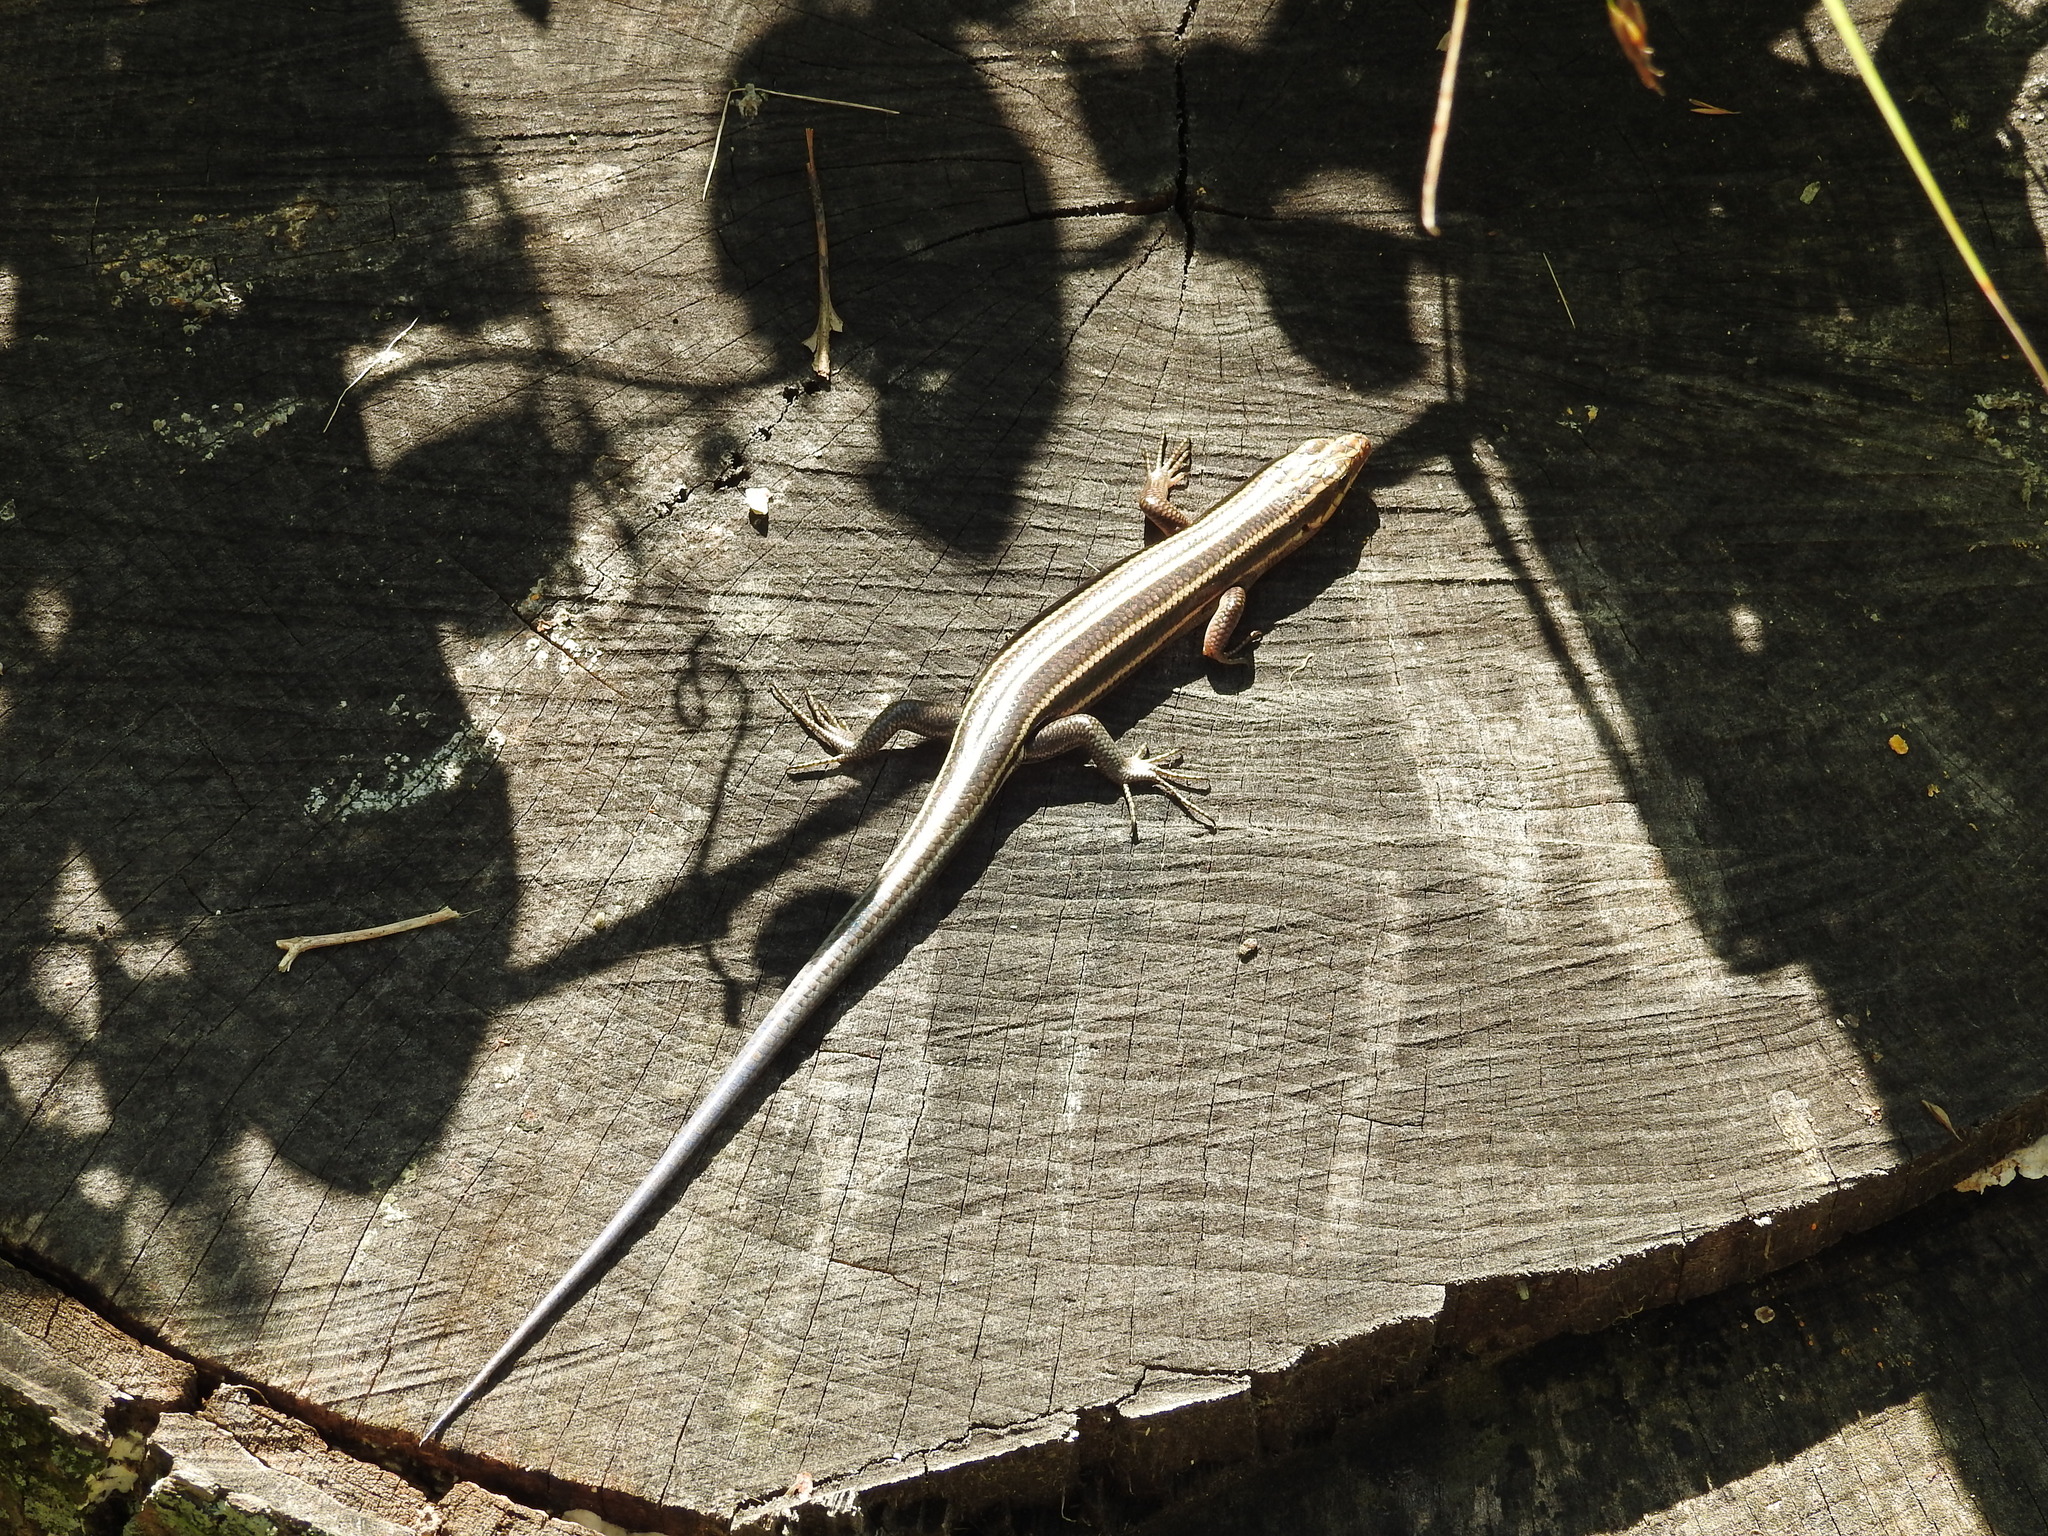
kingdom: Animalia
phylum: Chordata
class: Squamata
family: Scincidae
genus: Plestiodon
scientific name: Plestiodon fasciatus
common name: Five-lined skink
